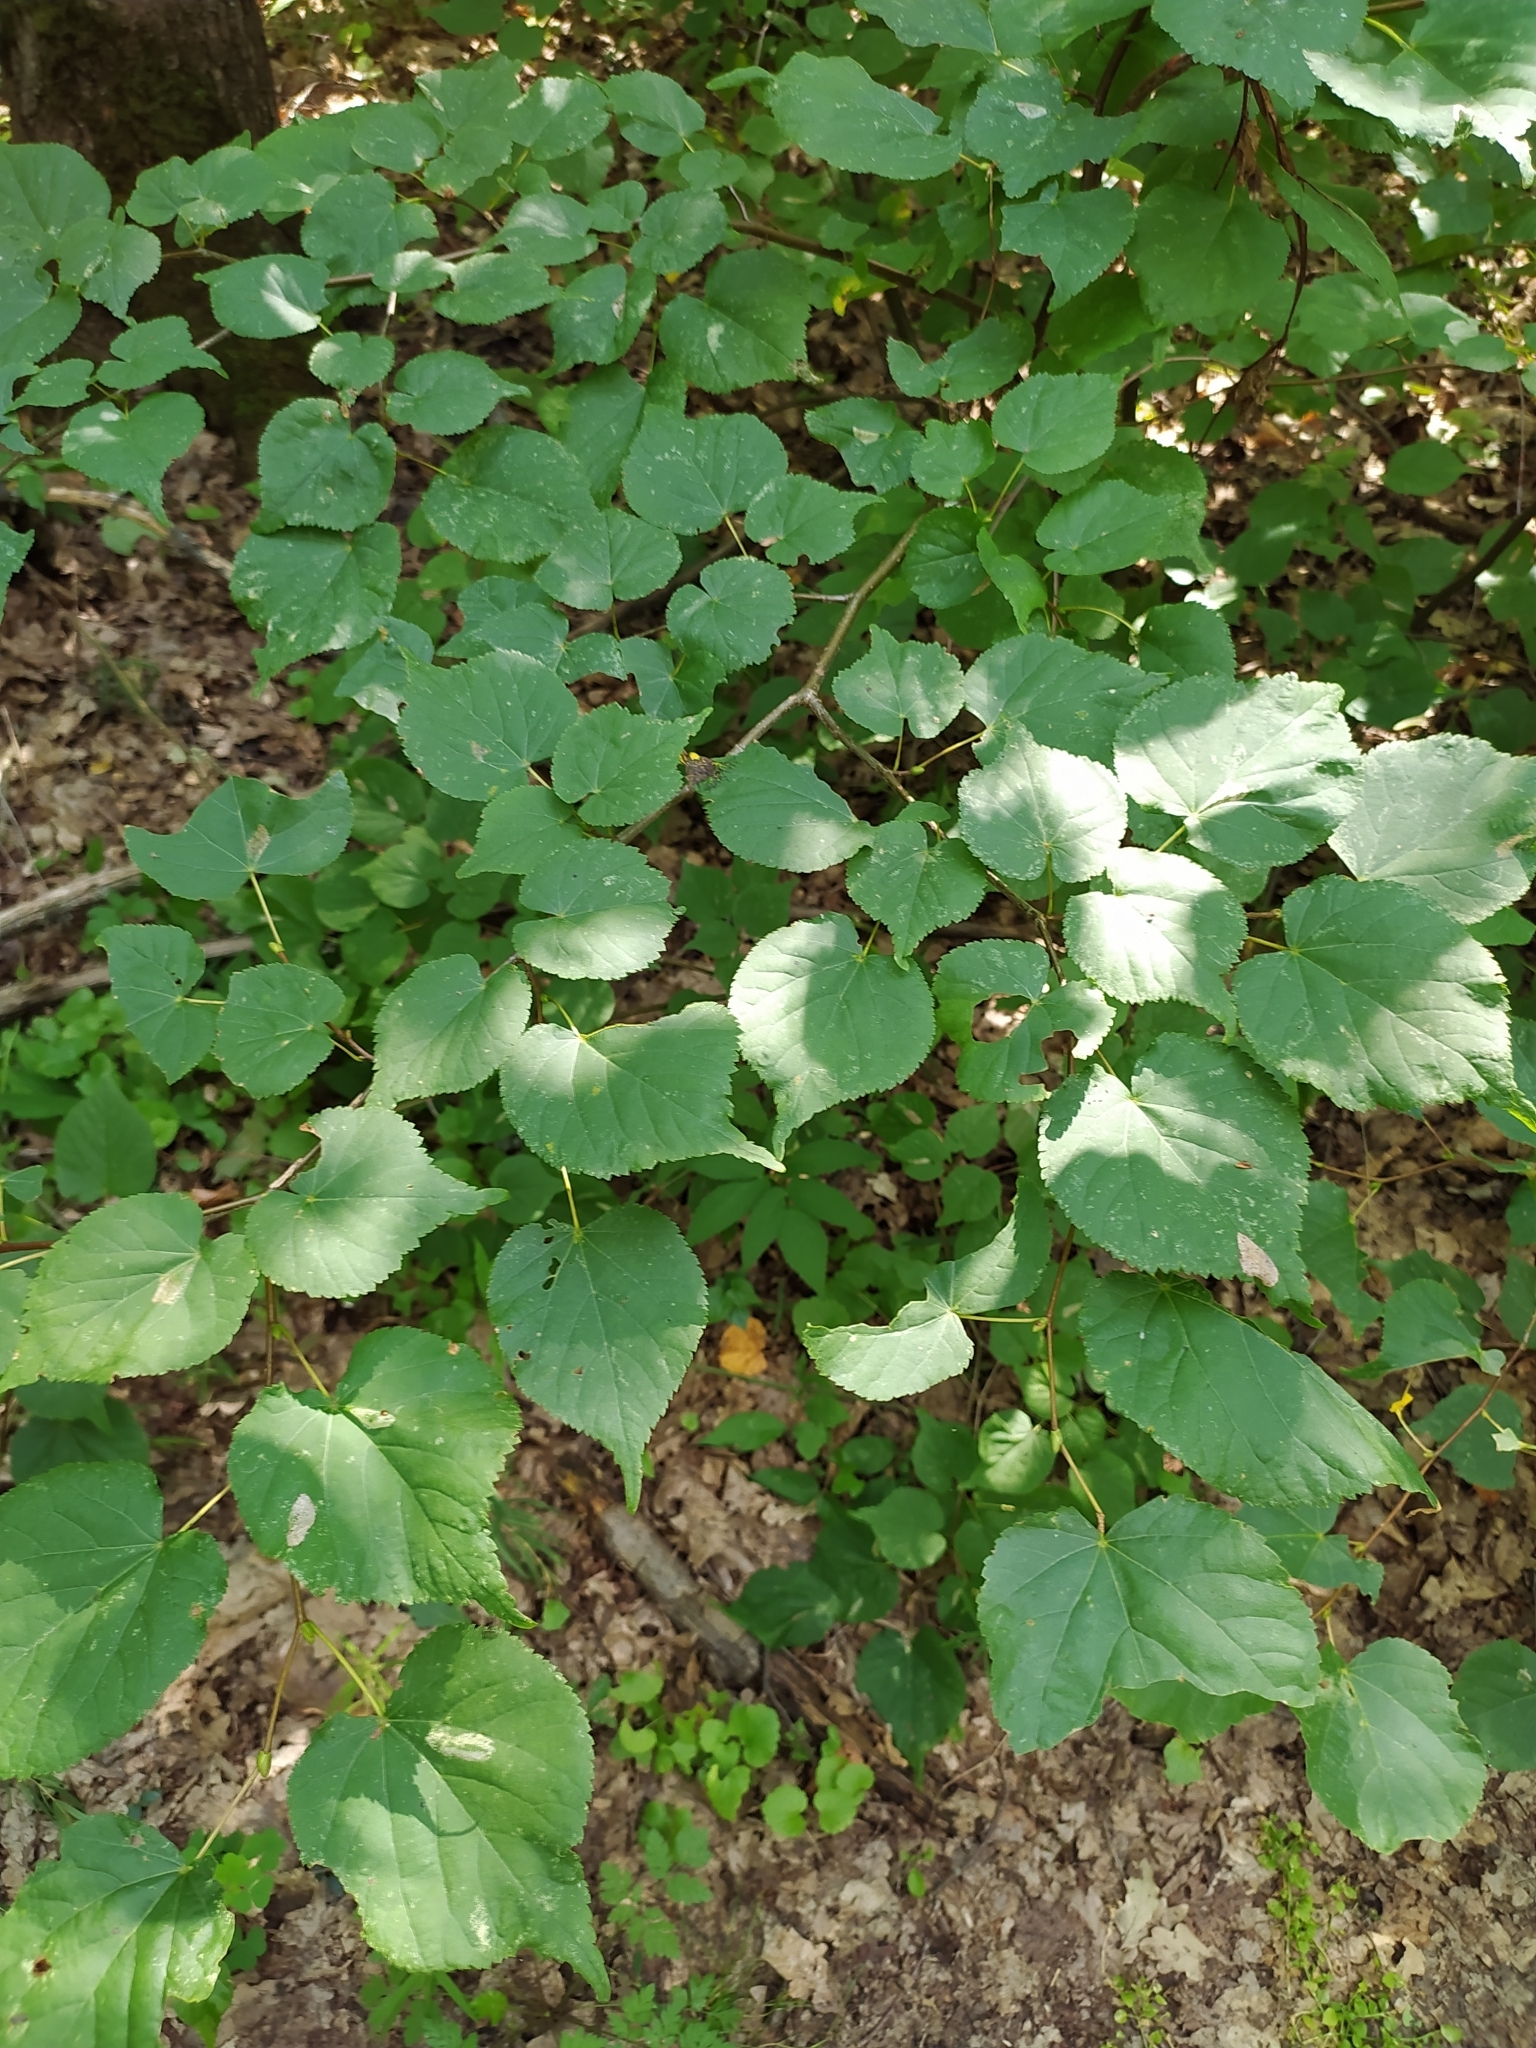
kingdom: Plantae
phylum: Tracheophyta
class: Magnoliopsida
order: Malvales
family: Malvaceae
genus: Tilia
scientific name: Tilia cordata
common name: Small-leaved lime
